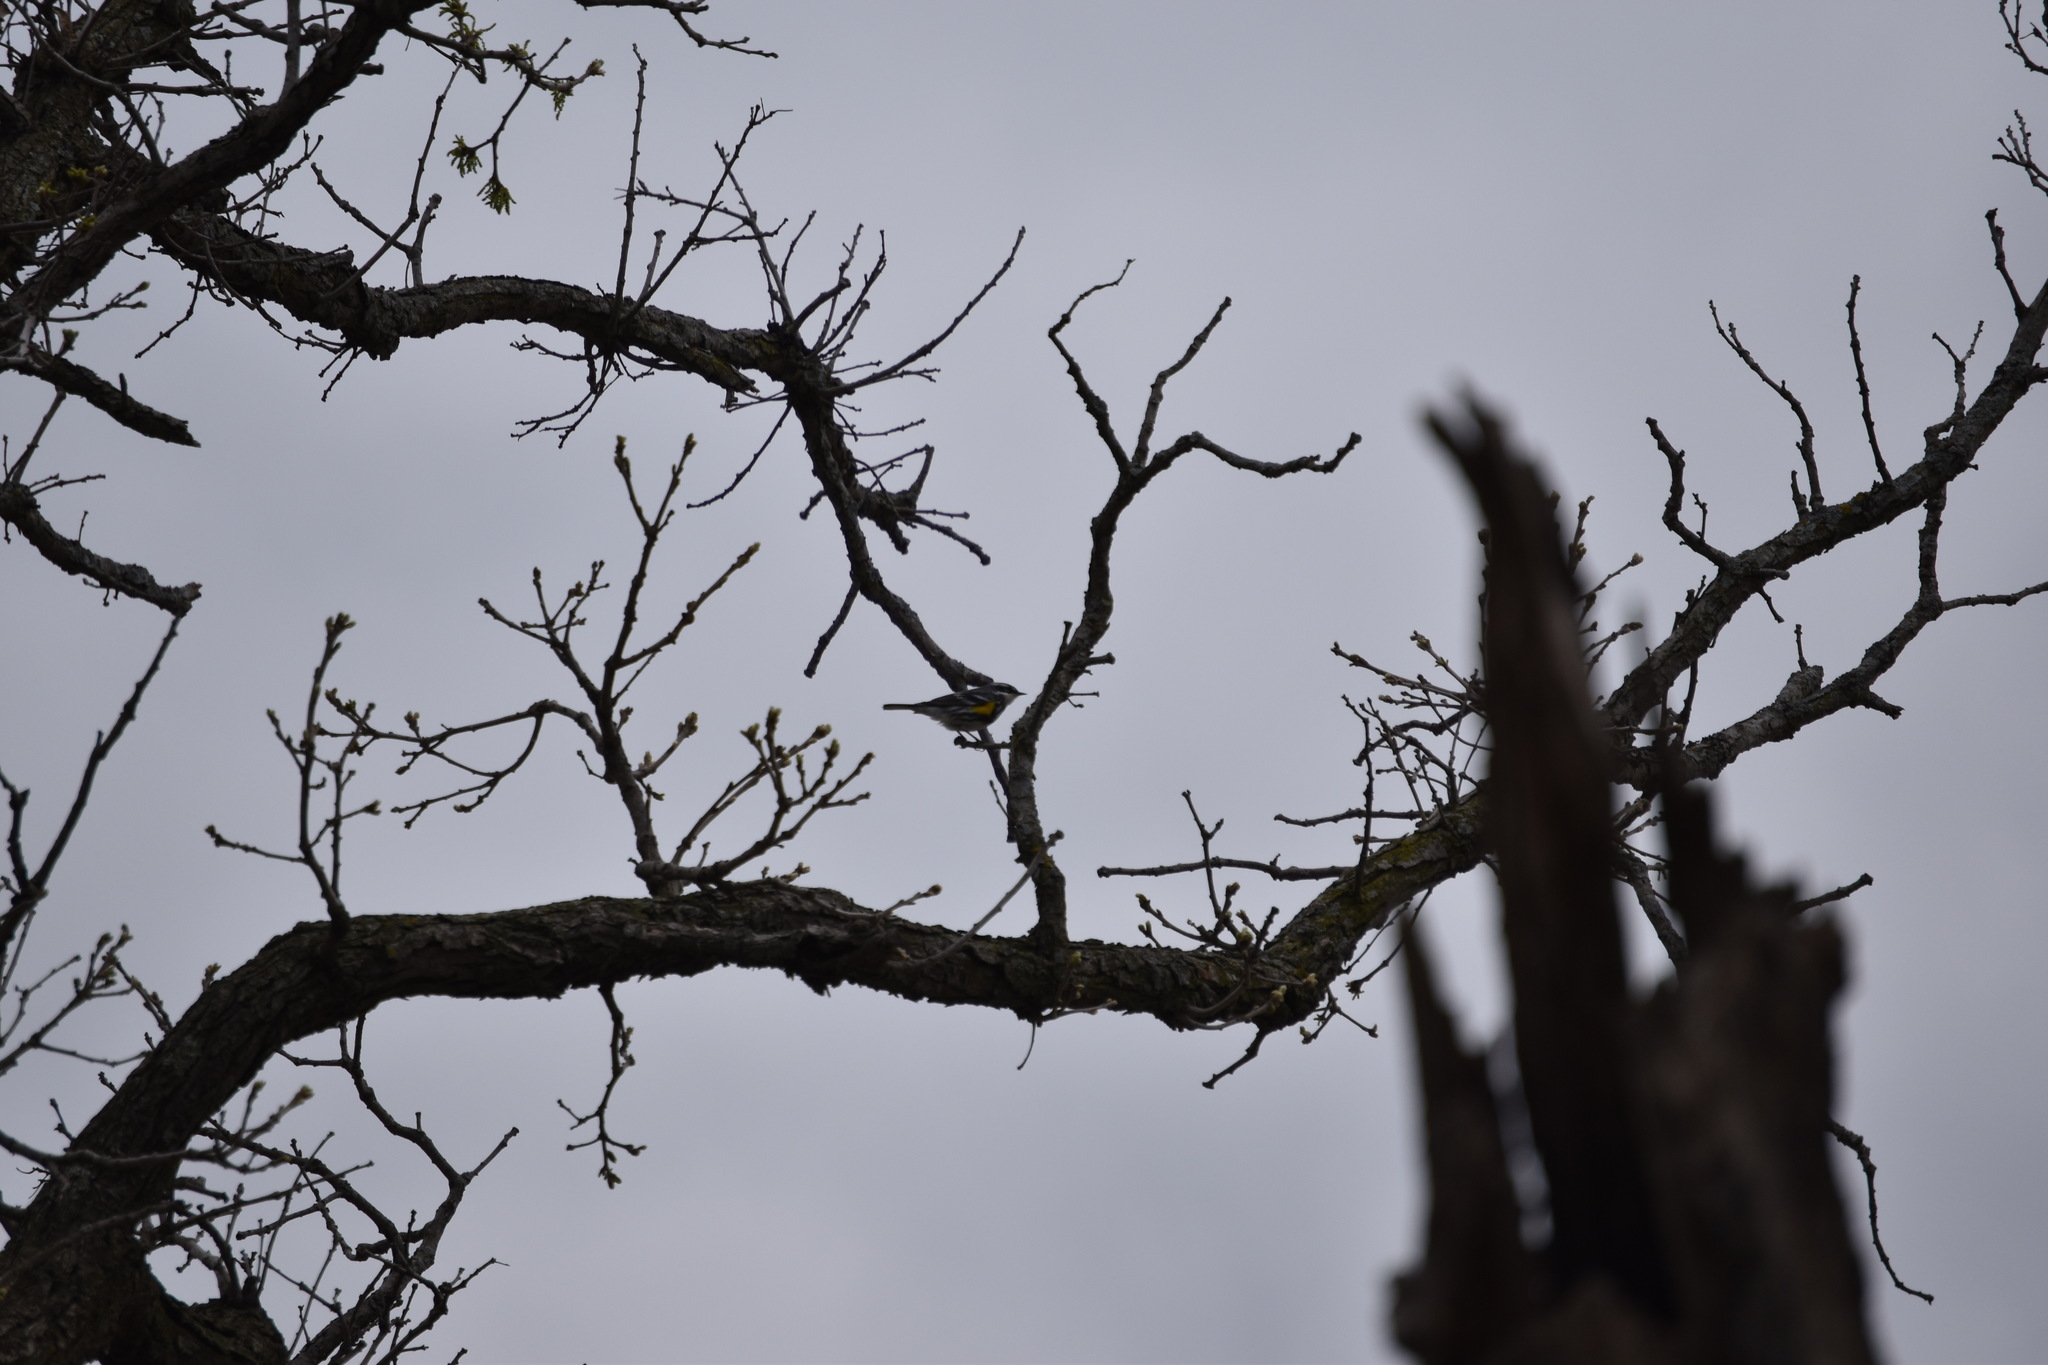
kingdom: Animalia
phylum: Chordata
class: Aves
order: Passeriformes
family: Parulidae
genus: Setophaga
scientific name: Setophaga coronata
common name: Myrtle warbler
